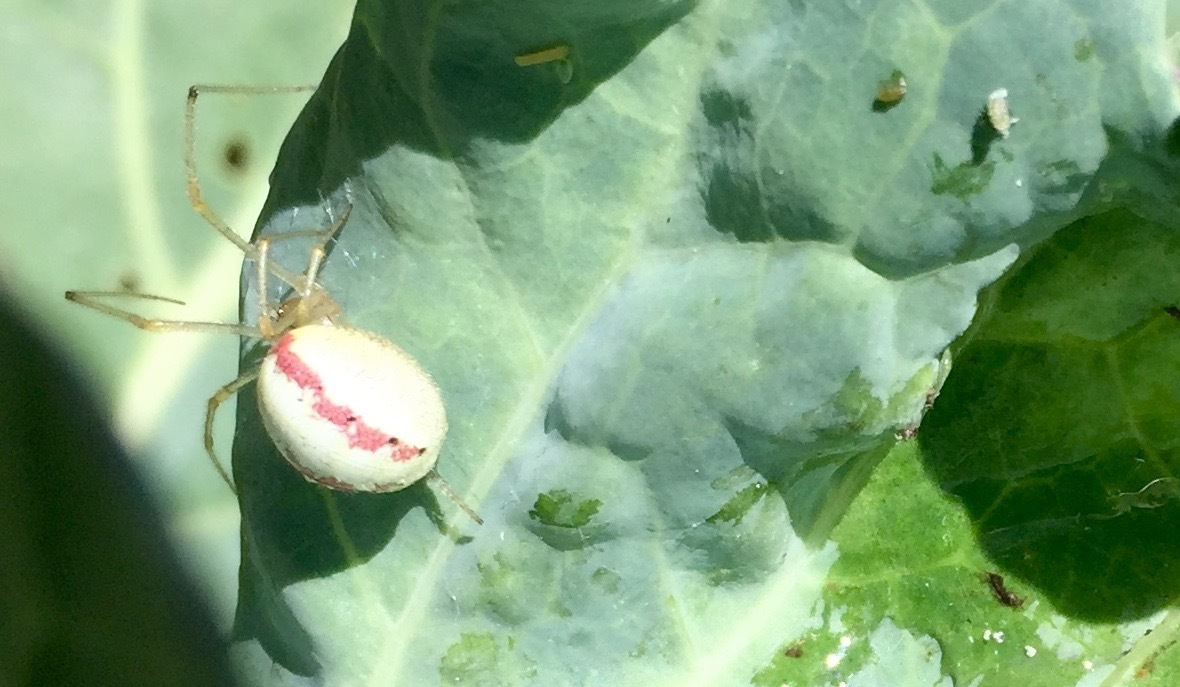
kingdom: Animalia
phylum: Arthropoda
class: Arachnida
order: Araneae
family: Theridiidae
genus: Enoplognatha
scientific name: Enoplognatha ovata
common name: Common candy-striped spider
